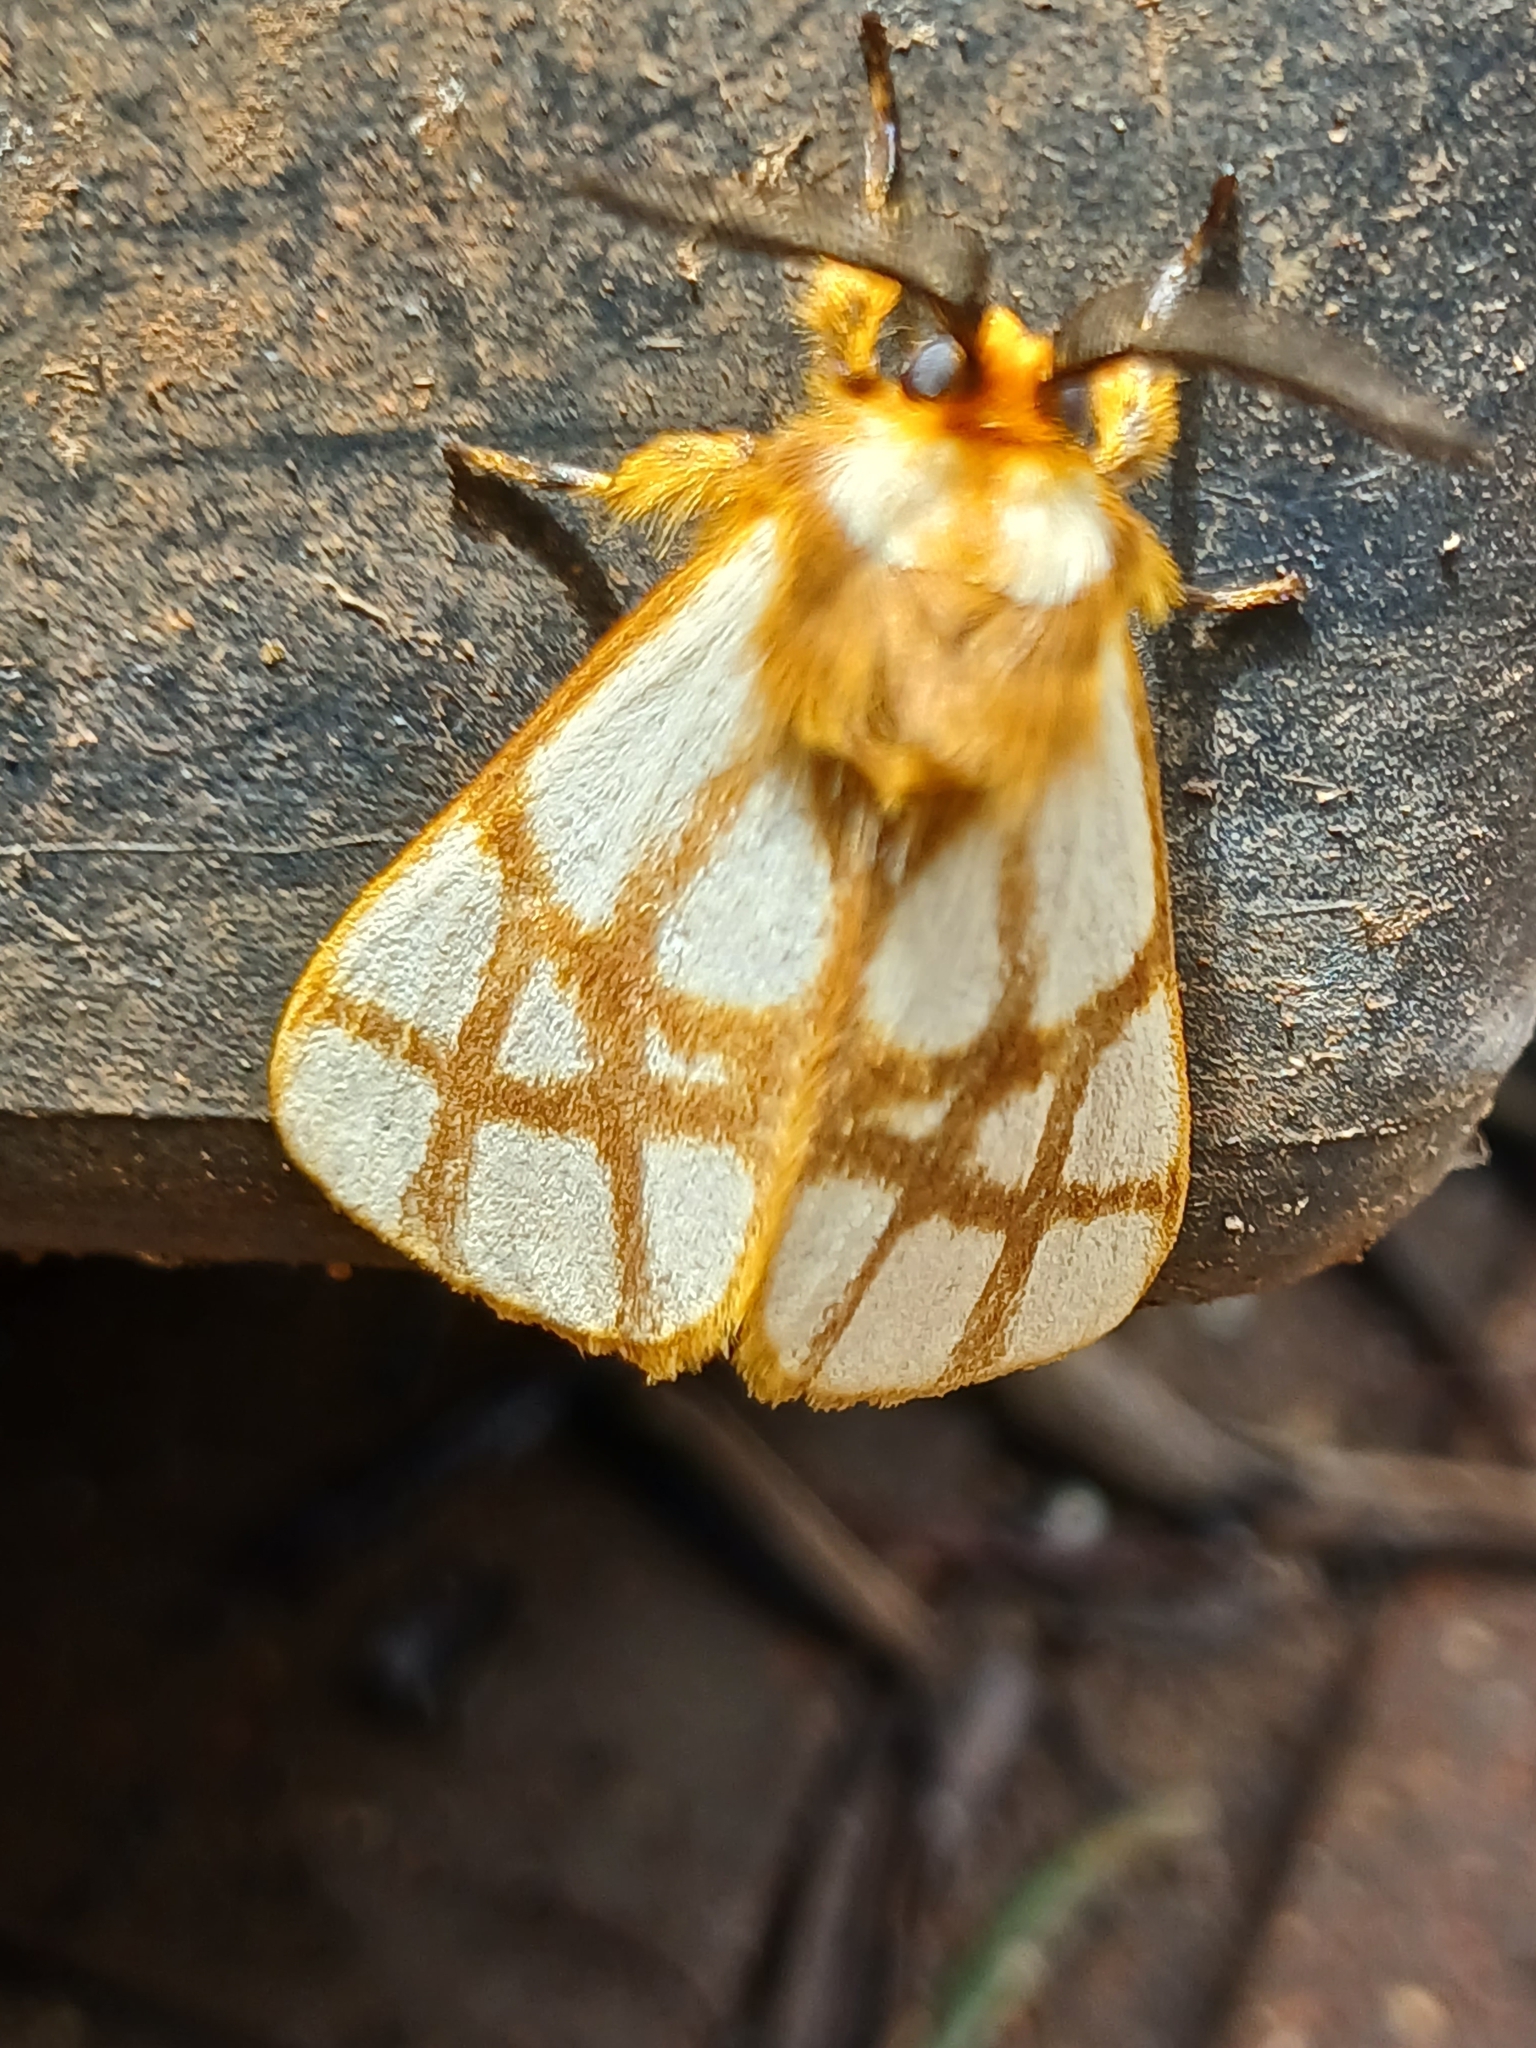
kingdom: Animalia
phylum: Arthropoda
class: Insecta
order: Lepidoptera
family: Notodontidae
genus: Anaphe
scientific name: Anaphe reticulata
